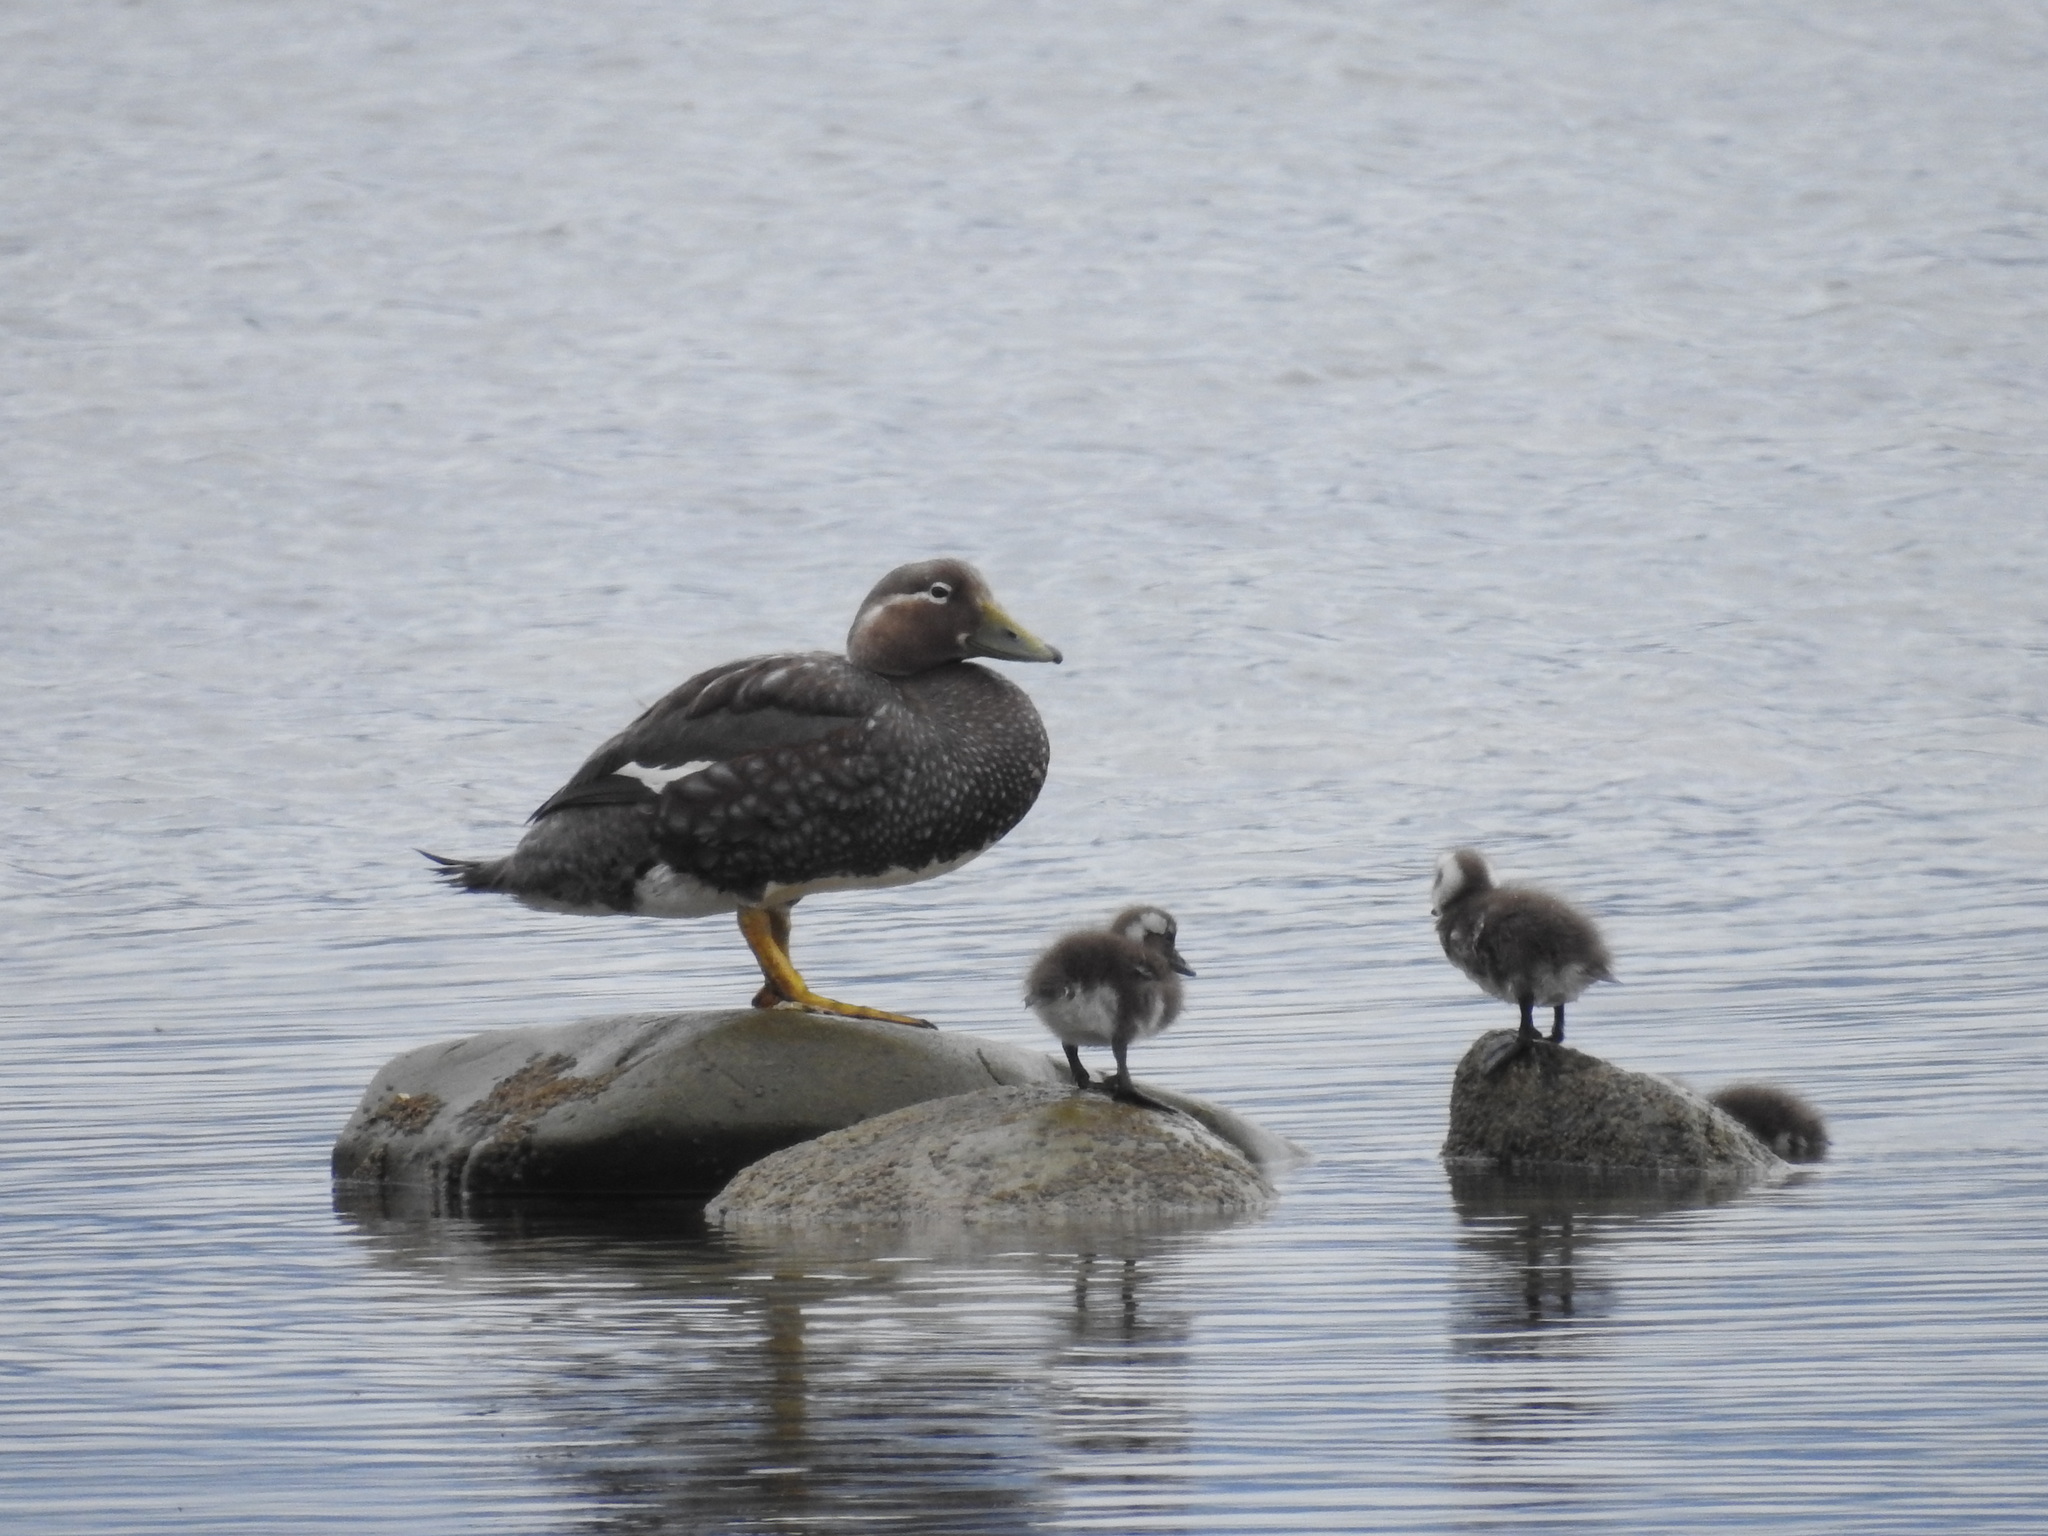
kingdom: Animalia
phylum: Chordata
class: Aves
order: Anseriformes
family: Anatidae
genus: Tachyeres
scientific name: Tachyeres patachonicus
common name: Flying steamer duck
